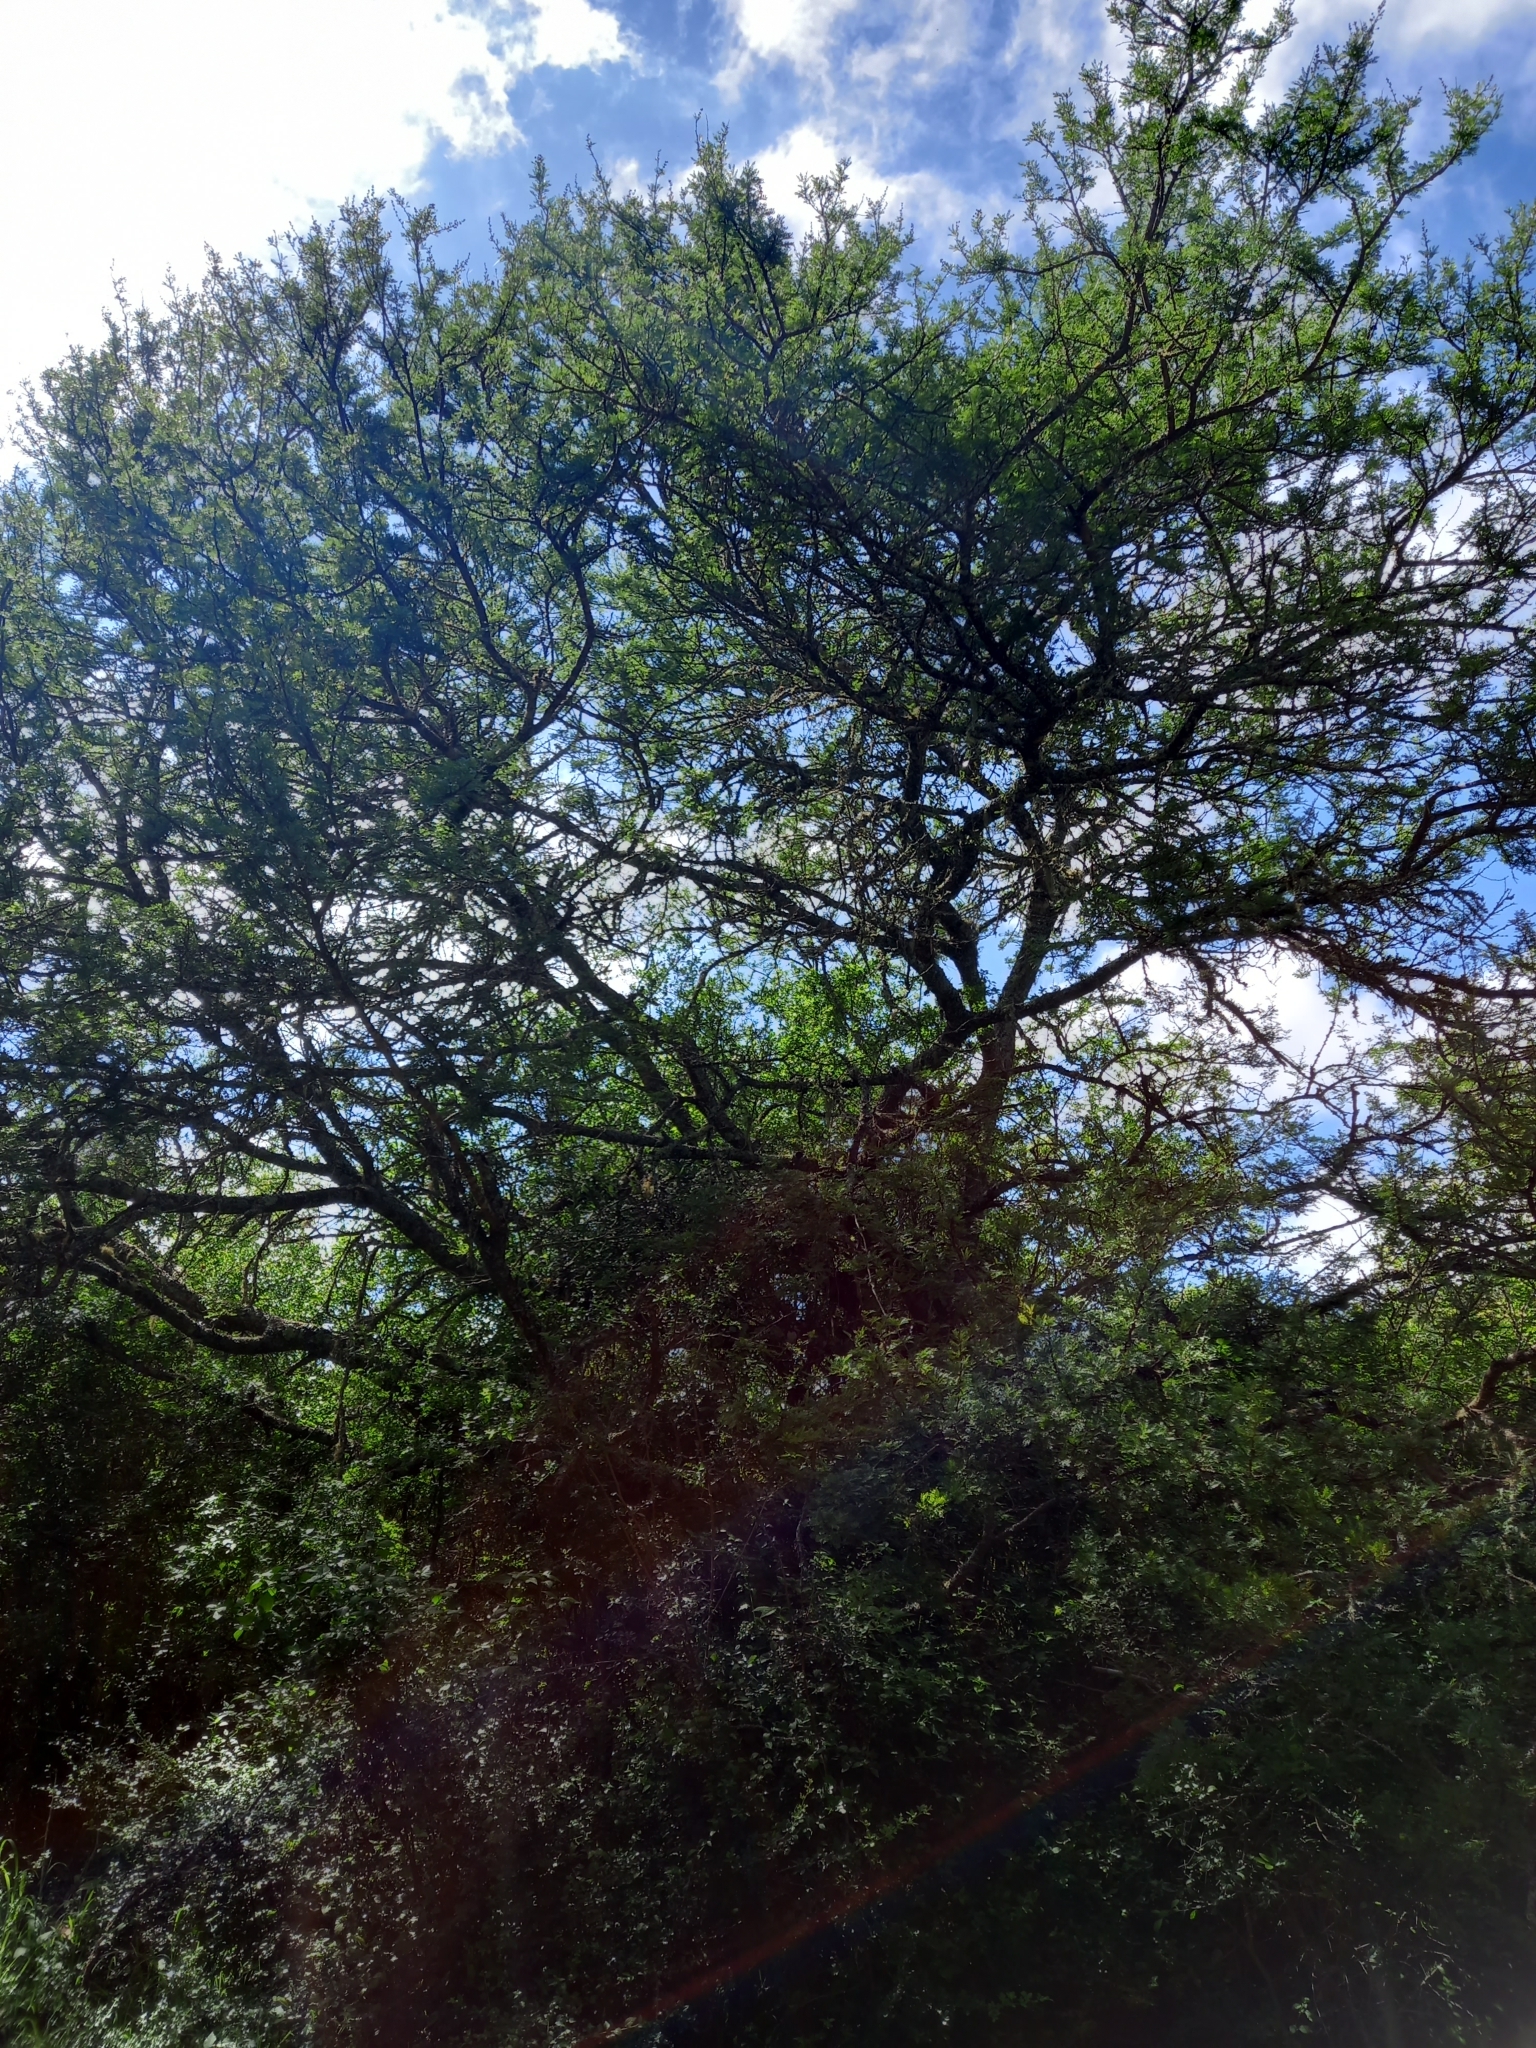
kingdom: Plantae
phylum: Tracheophyta
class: Magnoliopsida
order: Fabales
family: Fabaceae
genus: Vachellia
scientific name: Vachellia karroo
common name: Sweet thorn
